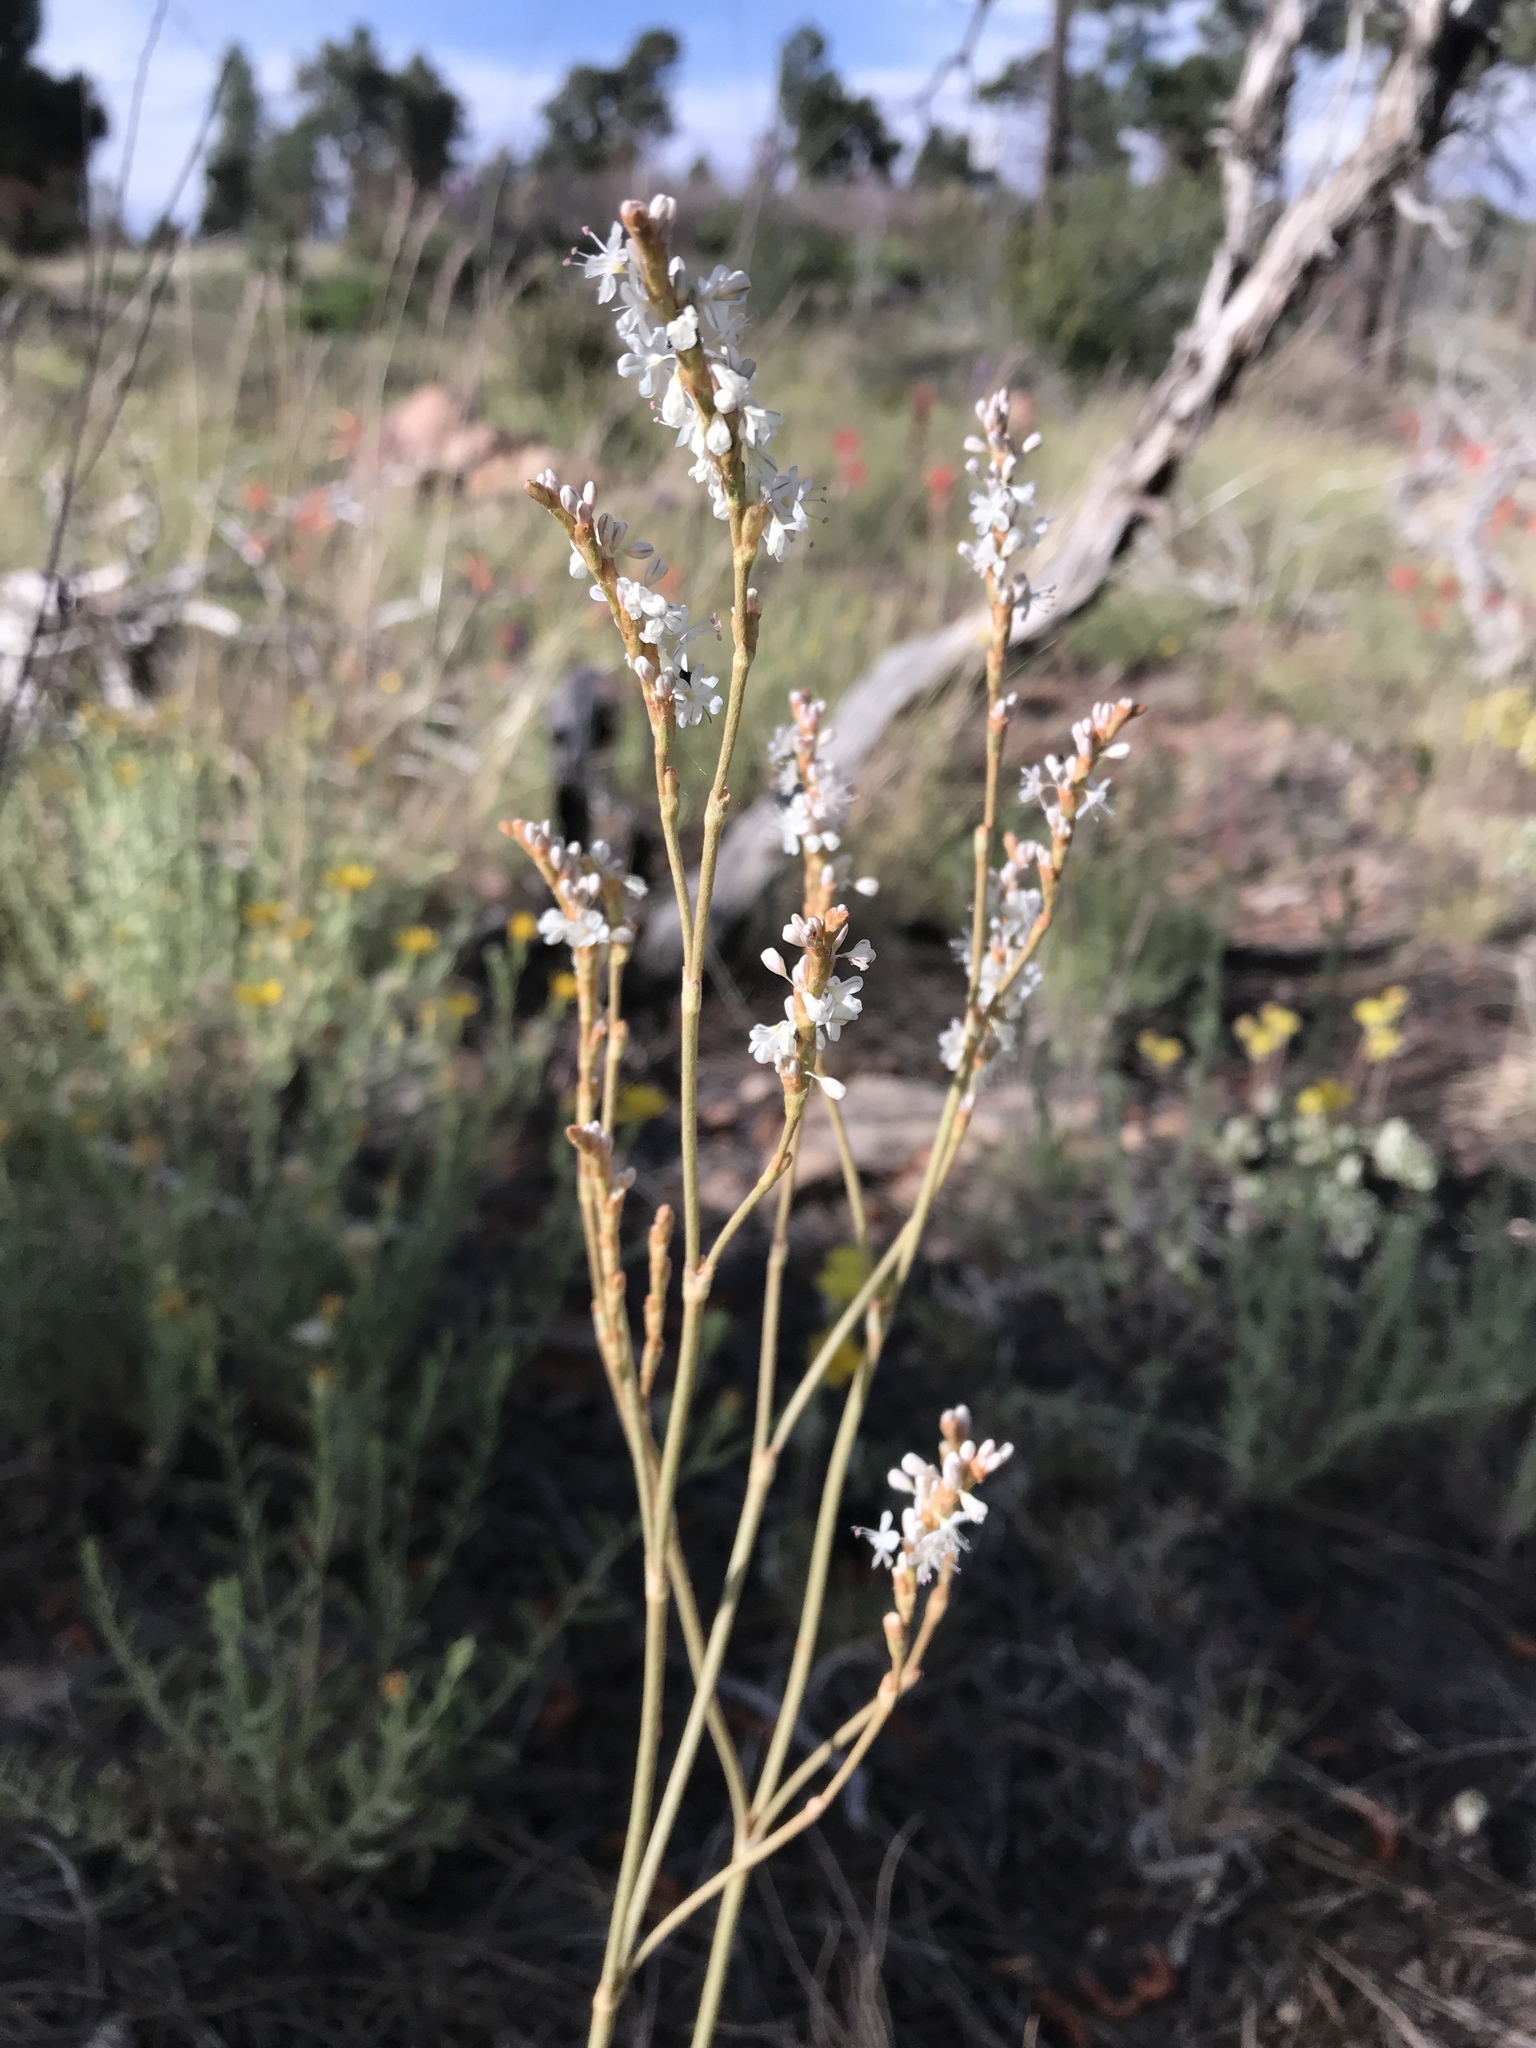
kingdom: Plantae
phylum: Tracheophyta
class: Magnoliopsida
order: Caryophyllales
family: Polygonaceae
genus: Eriogonum
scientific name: Eriogonum racemosum
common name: Redroot wild buckwheat
